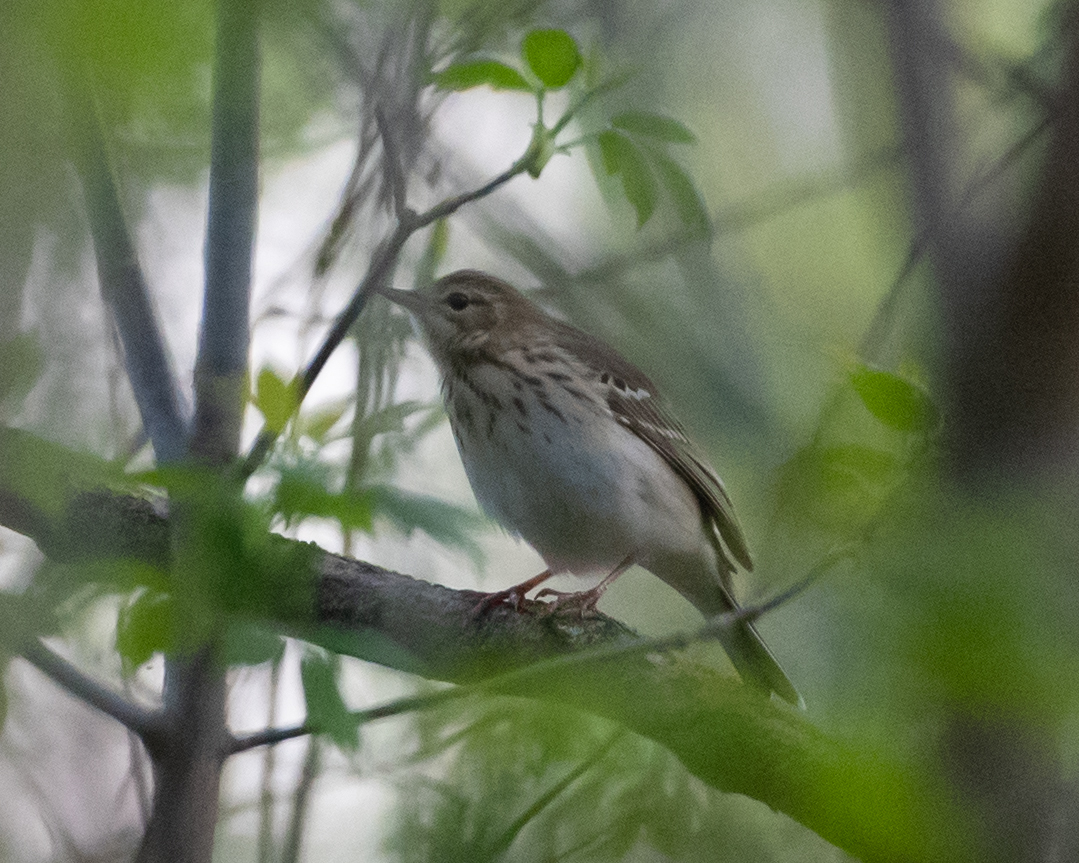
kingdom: Animalia
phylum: Chordata
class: Aves
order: Passeriformes
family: Motacillidae
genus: Anthus
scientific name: Anthus trivialis
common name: Tree pipit
